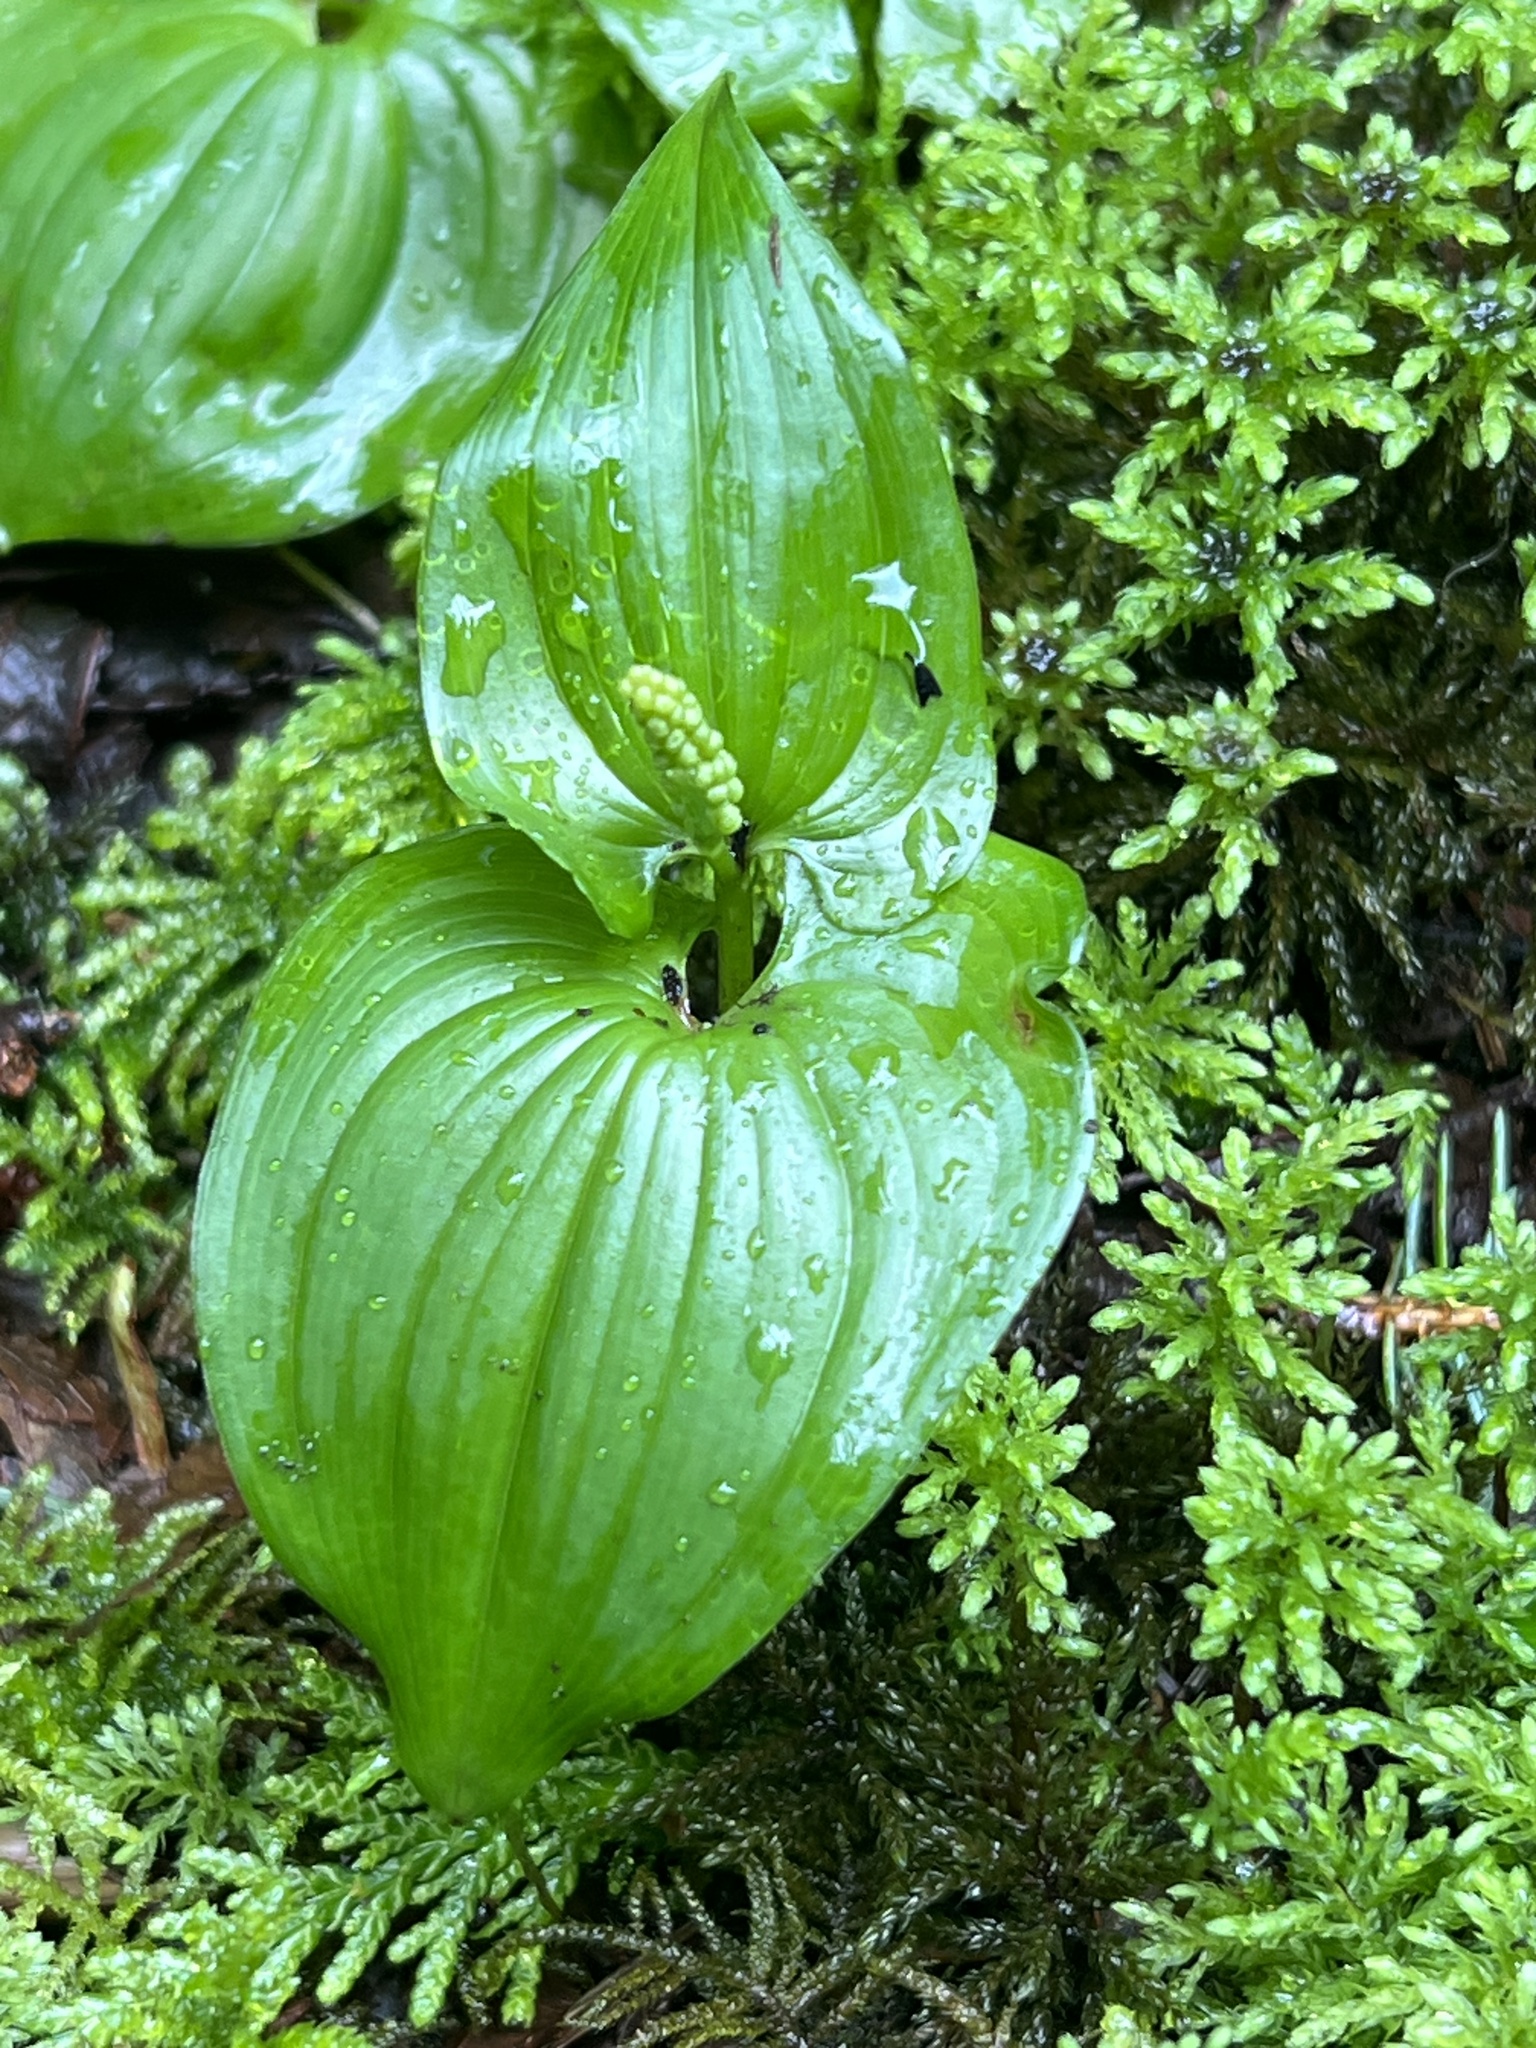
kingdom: Plantae
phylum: Tracheophyta
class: Liliopsida
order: Asparagales
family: Asparagaceae
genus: Maianthemum
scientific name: Maianthemum dilatatum
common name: False lily-of-the-valley
